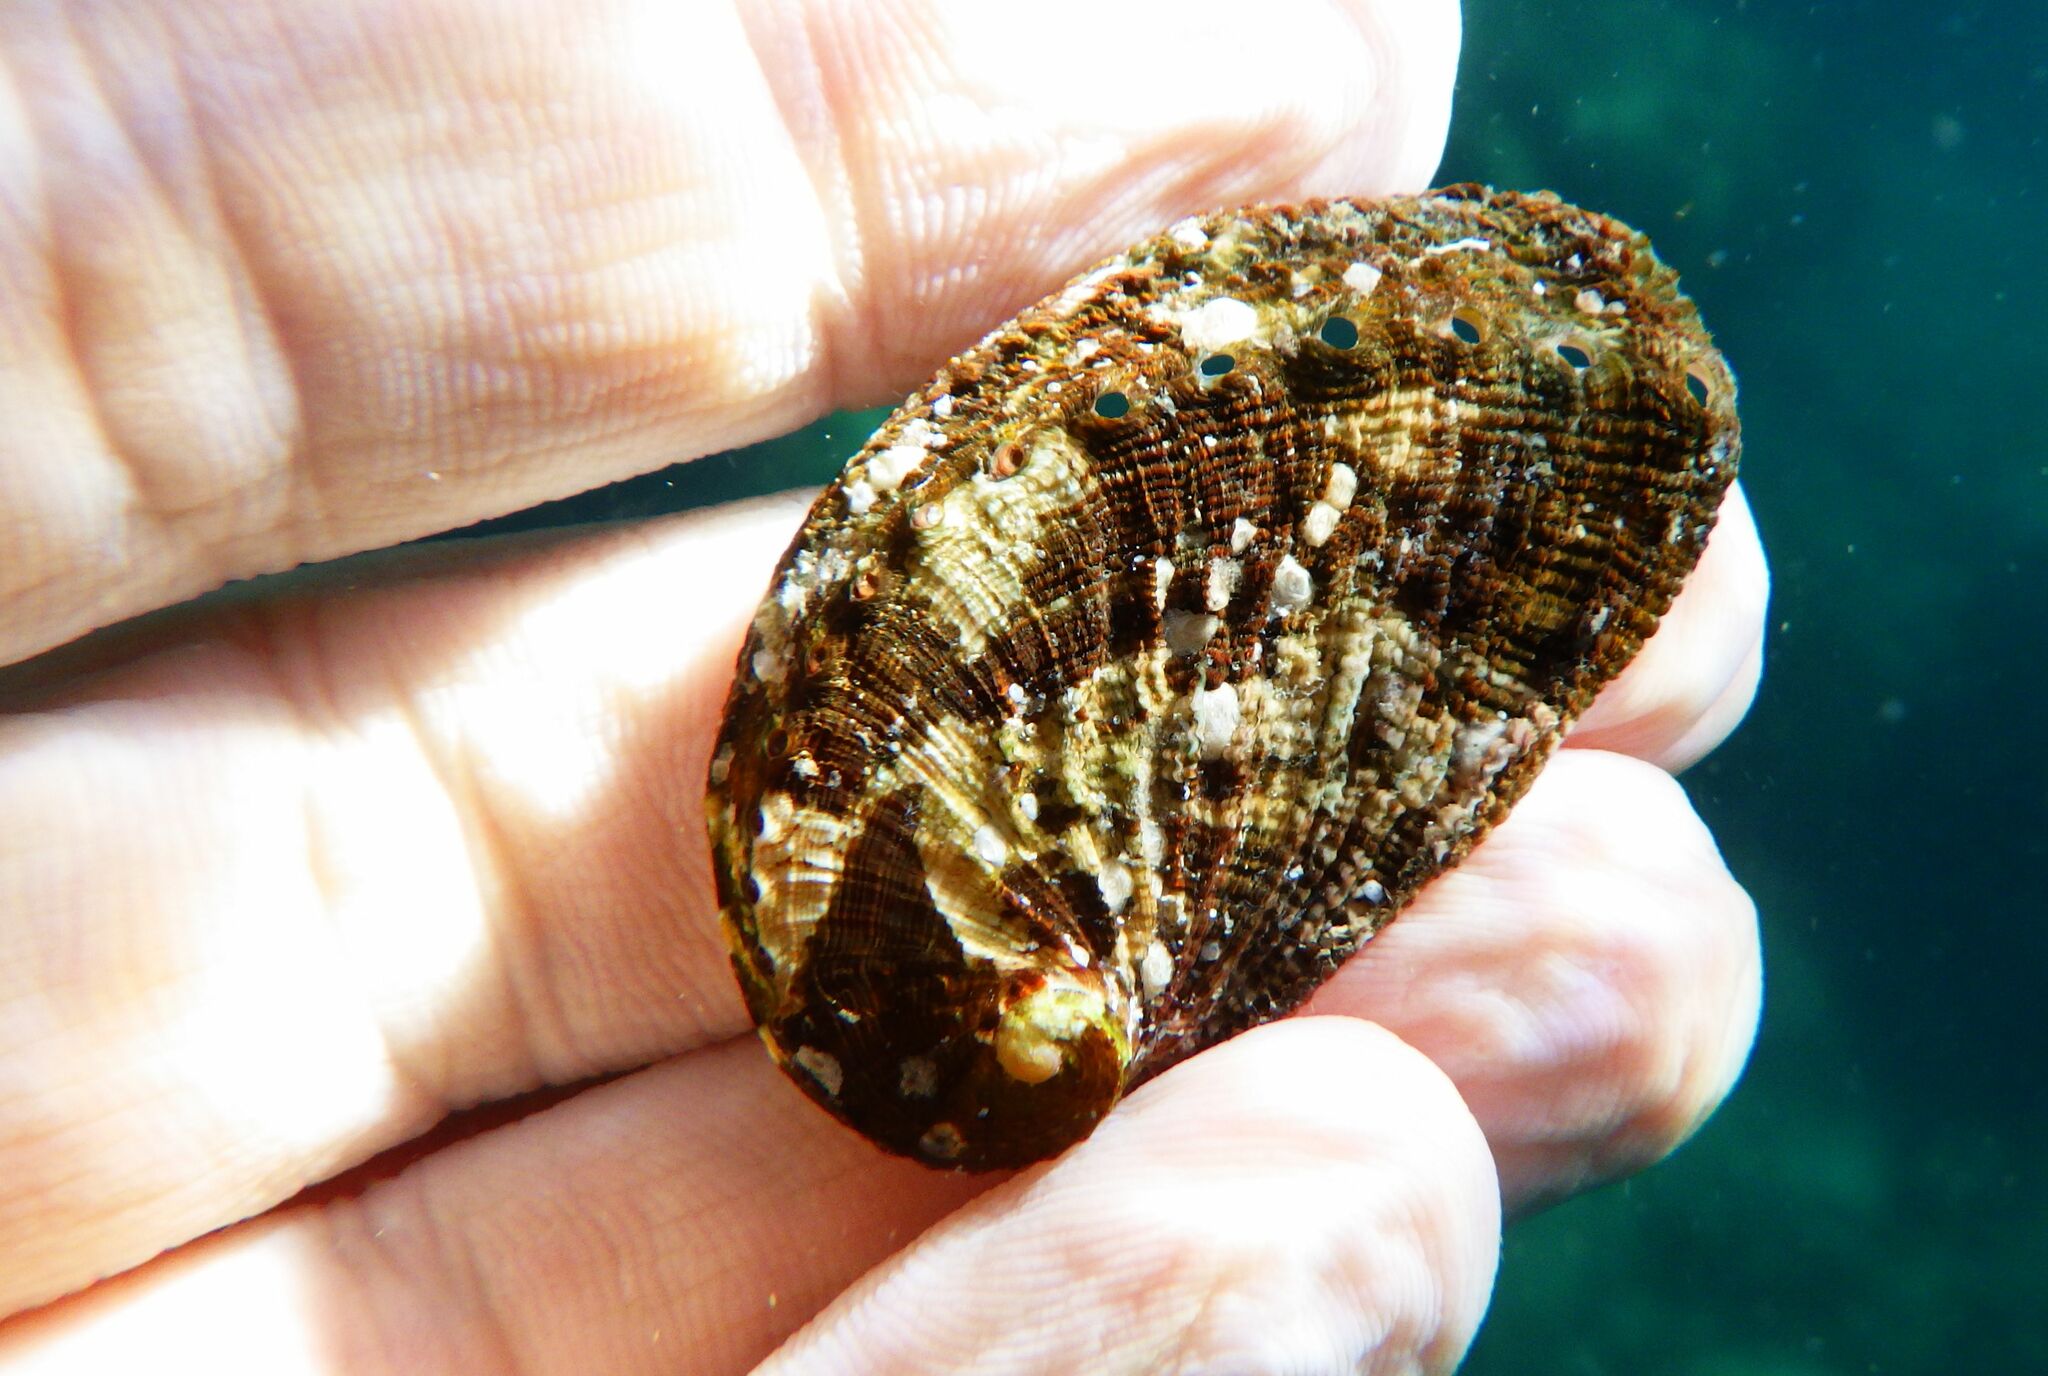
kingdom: Animalia
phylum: Mollusca
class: Gastropoda
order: Lepetellida
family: Haliotidae
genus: Haliotis
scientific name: Haliotis tuberculata
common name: Green ormer
